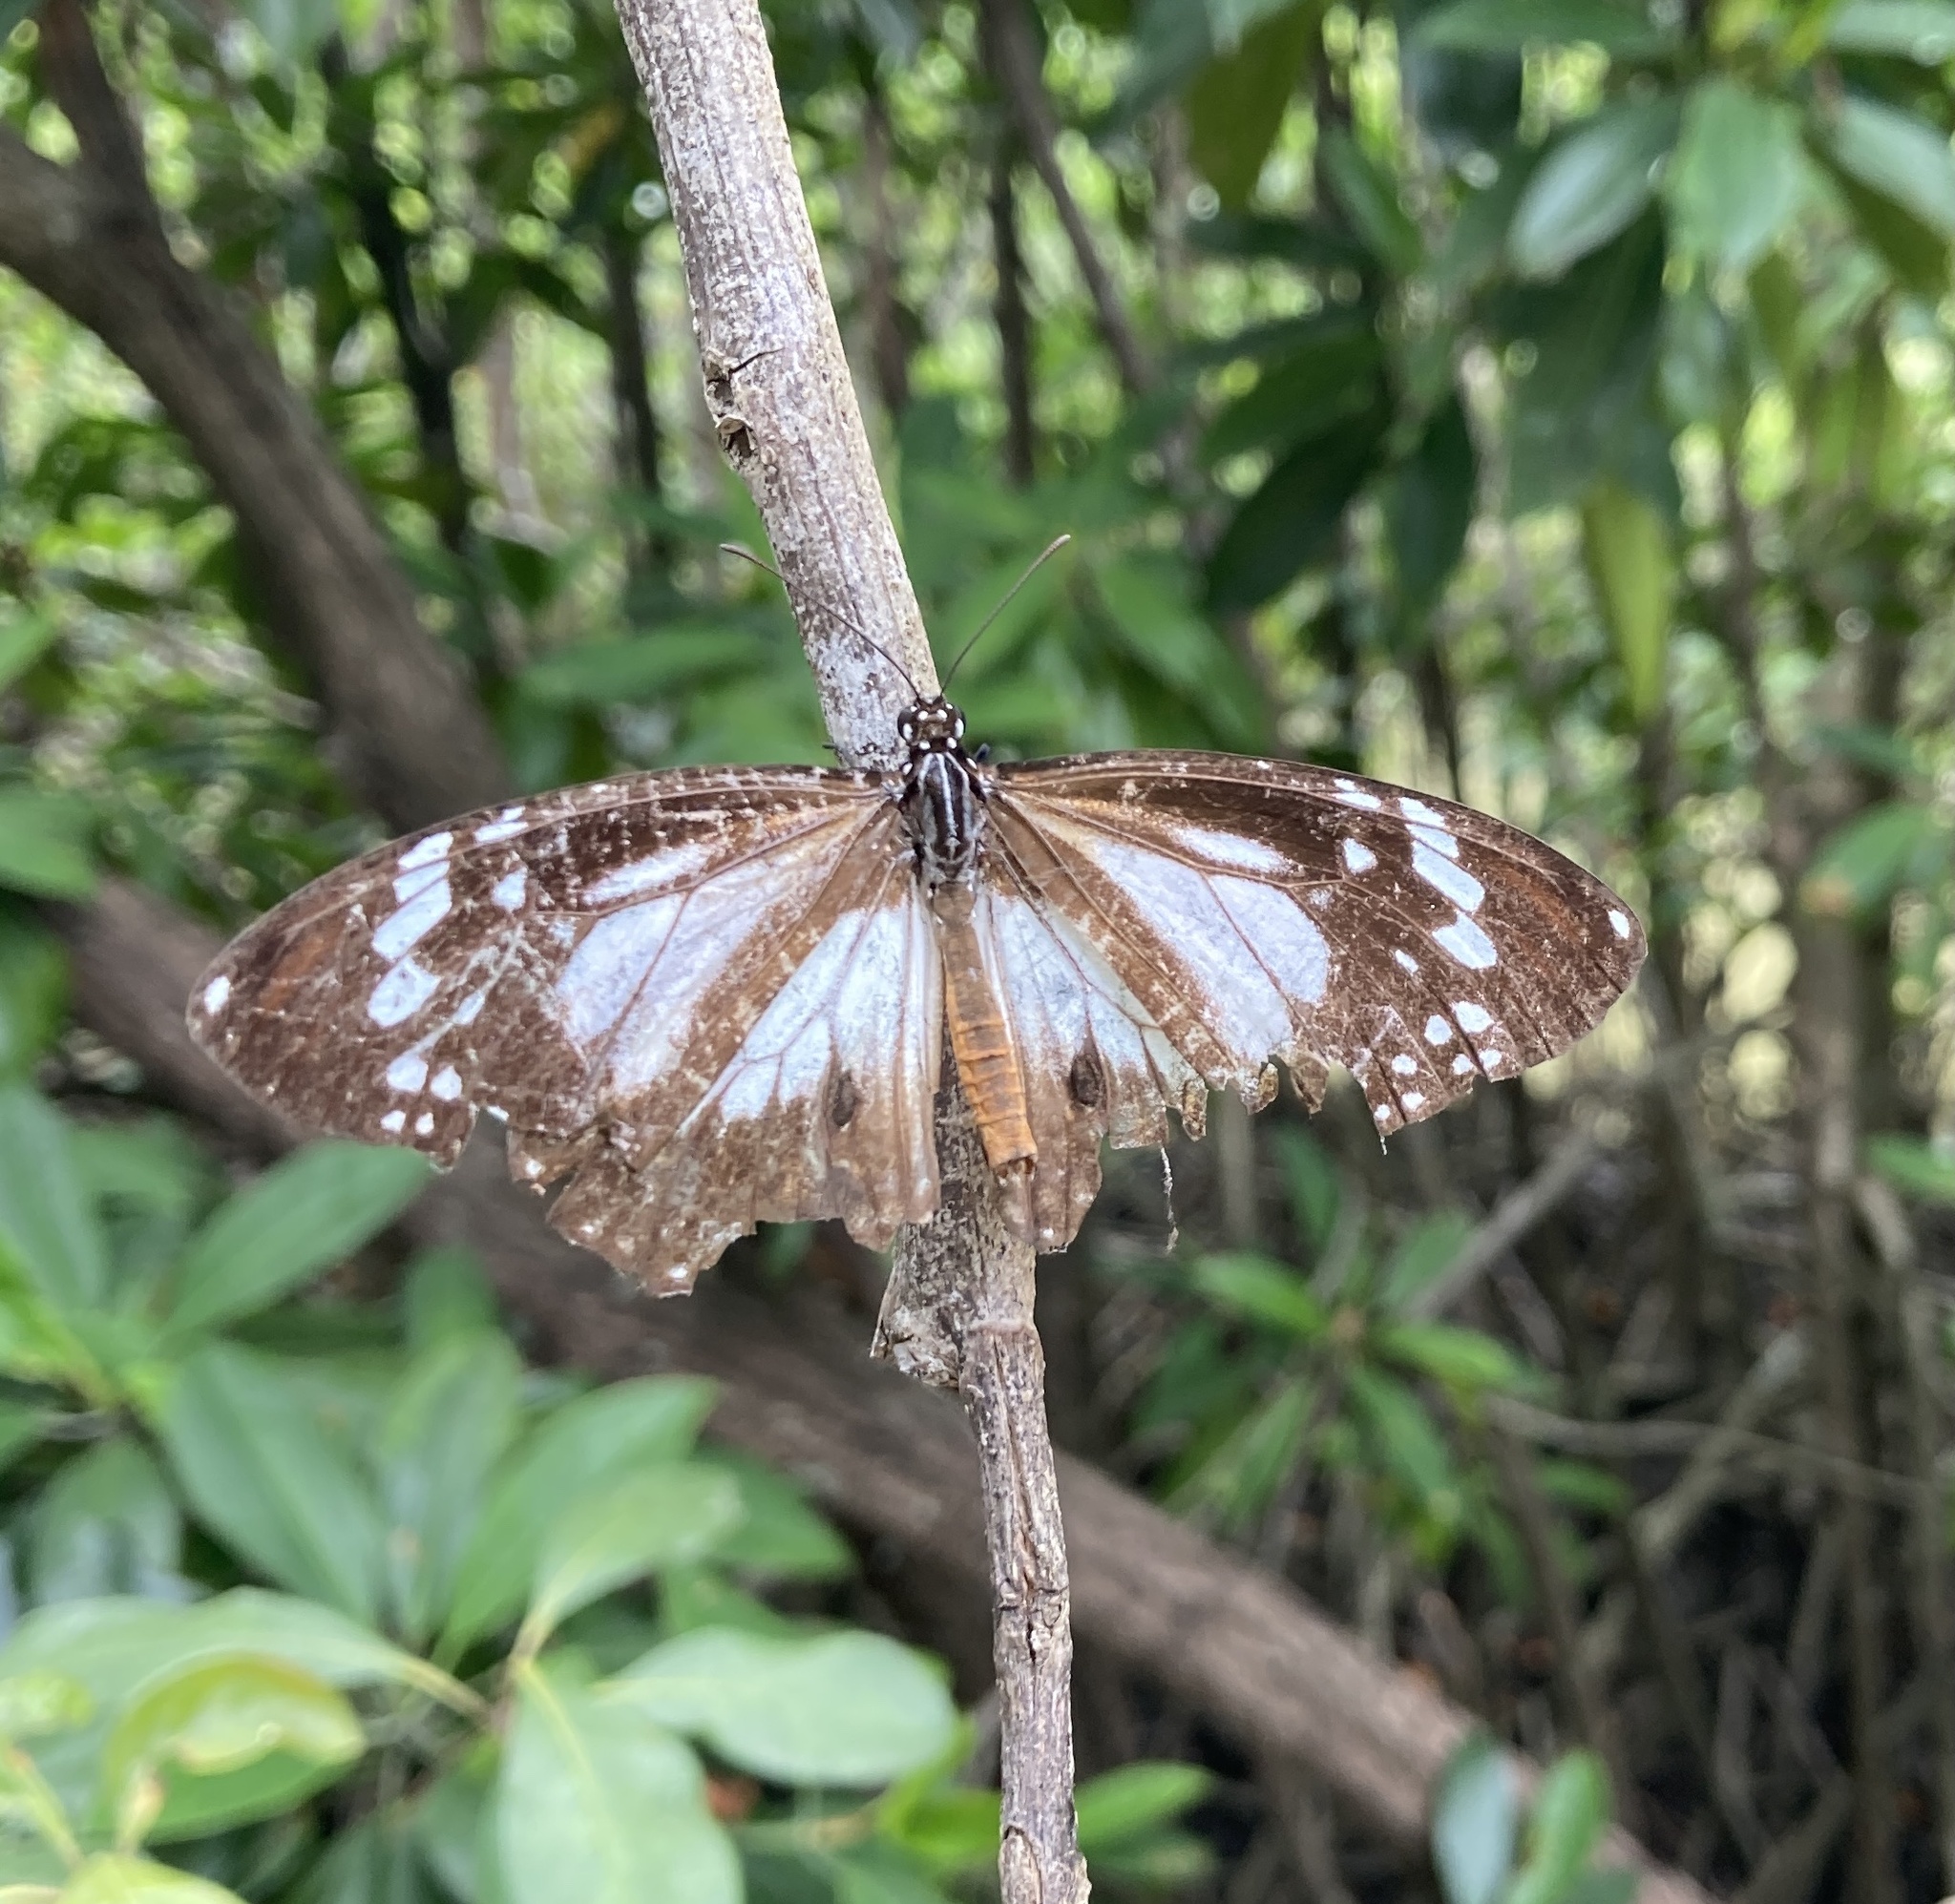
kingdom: Animalia
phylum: Arthropoda
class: Insecta
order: Lepidoptera
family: Nymphalidae
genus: Danaus
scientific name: Danaus affinis
